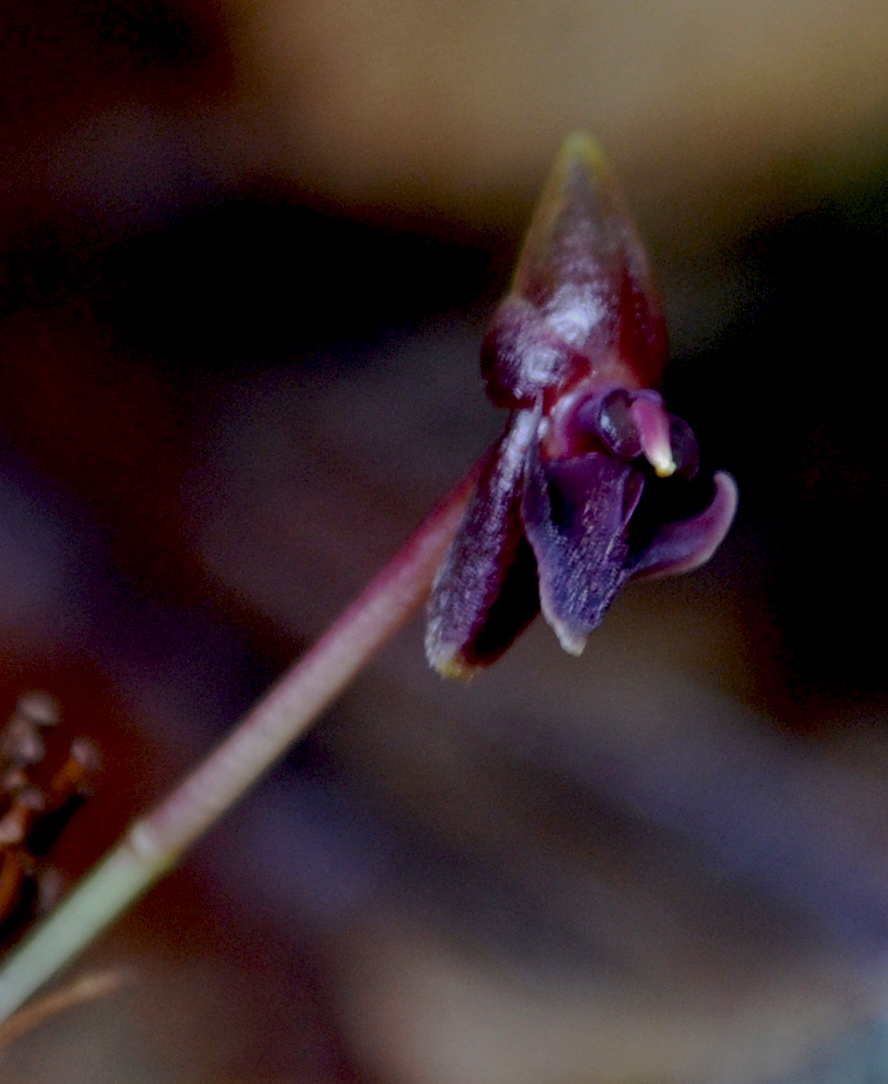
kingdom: Plantae
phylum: Tracheophyta
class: Liliopsida
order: Asparagales
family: Orchidaceae
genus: Pleurothallis
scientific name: Pleurothallis peculiaris
